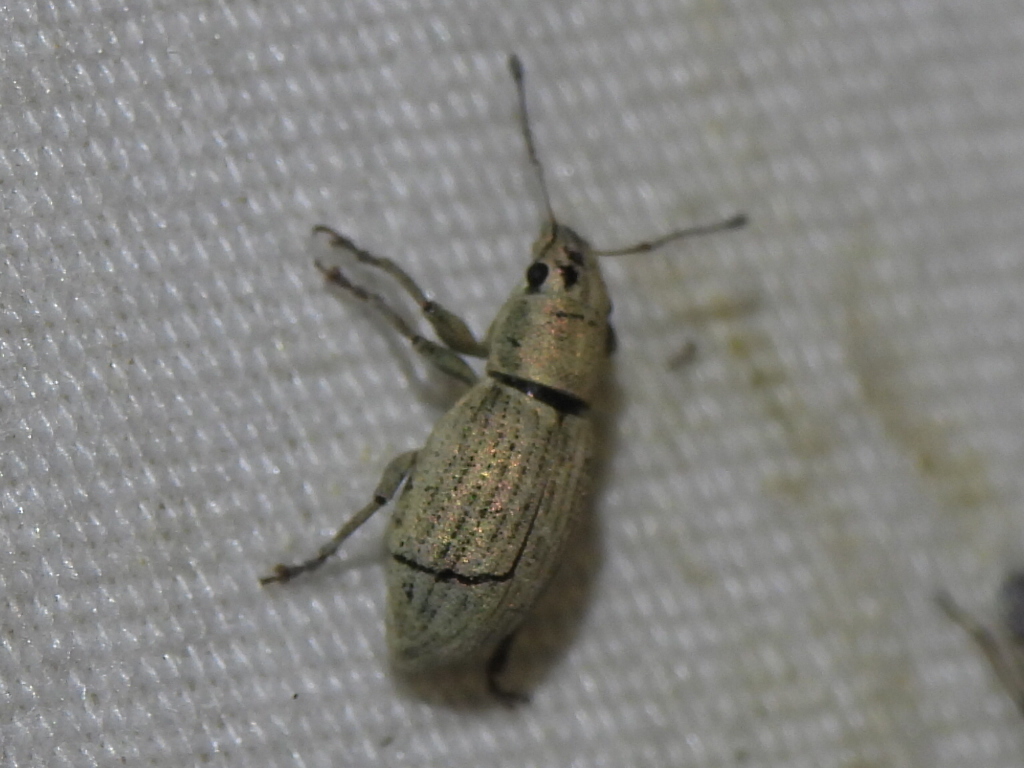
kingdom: Animalia
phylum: Arthropoda
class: Insecta
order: Coleoptera
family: Curculionidae
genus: Aramigus
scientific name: Aramigus tessellatus
